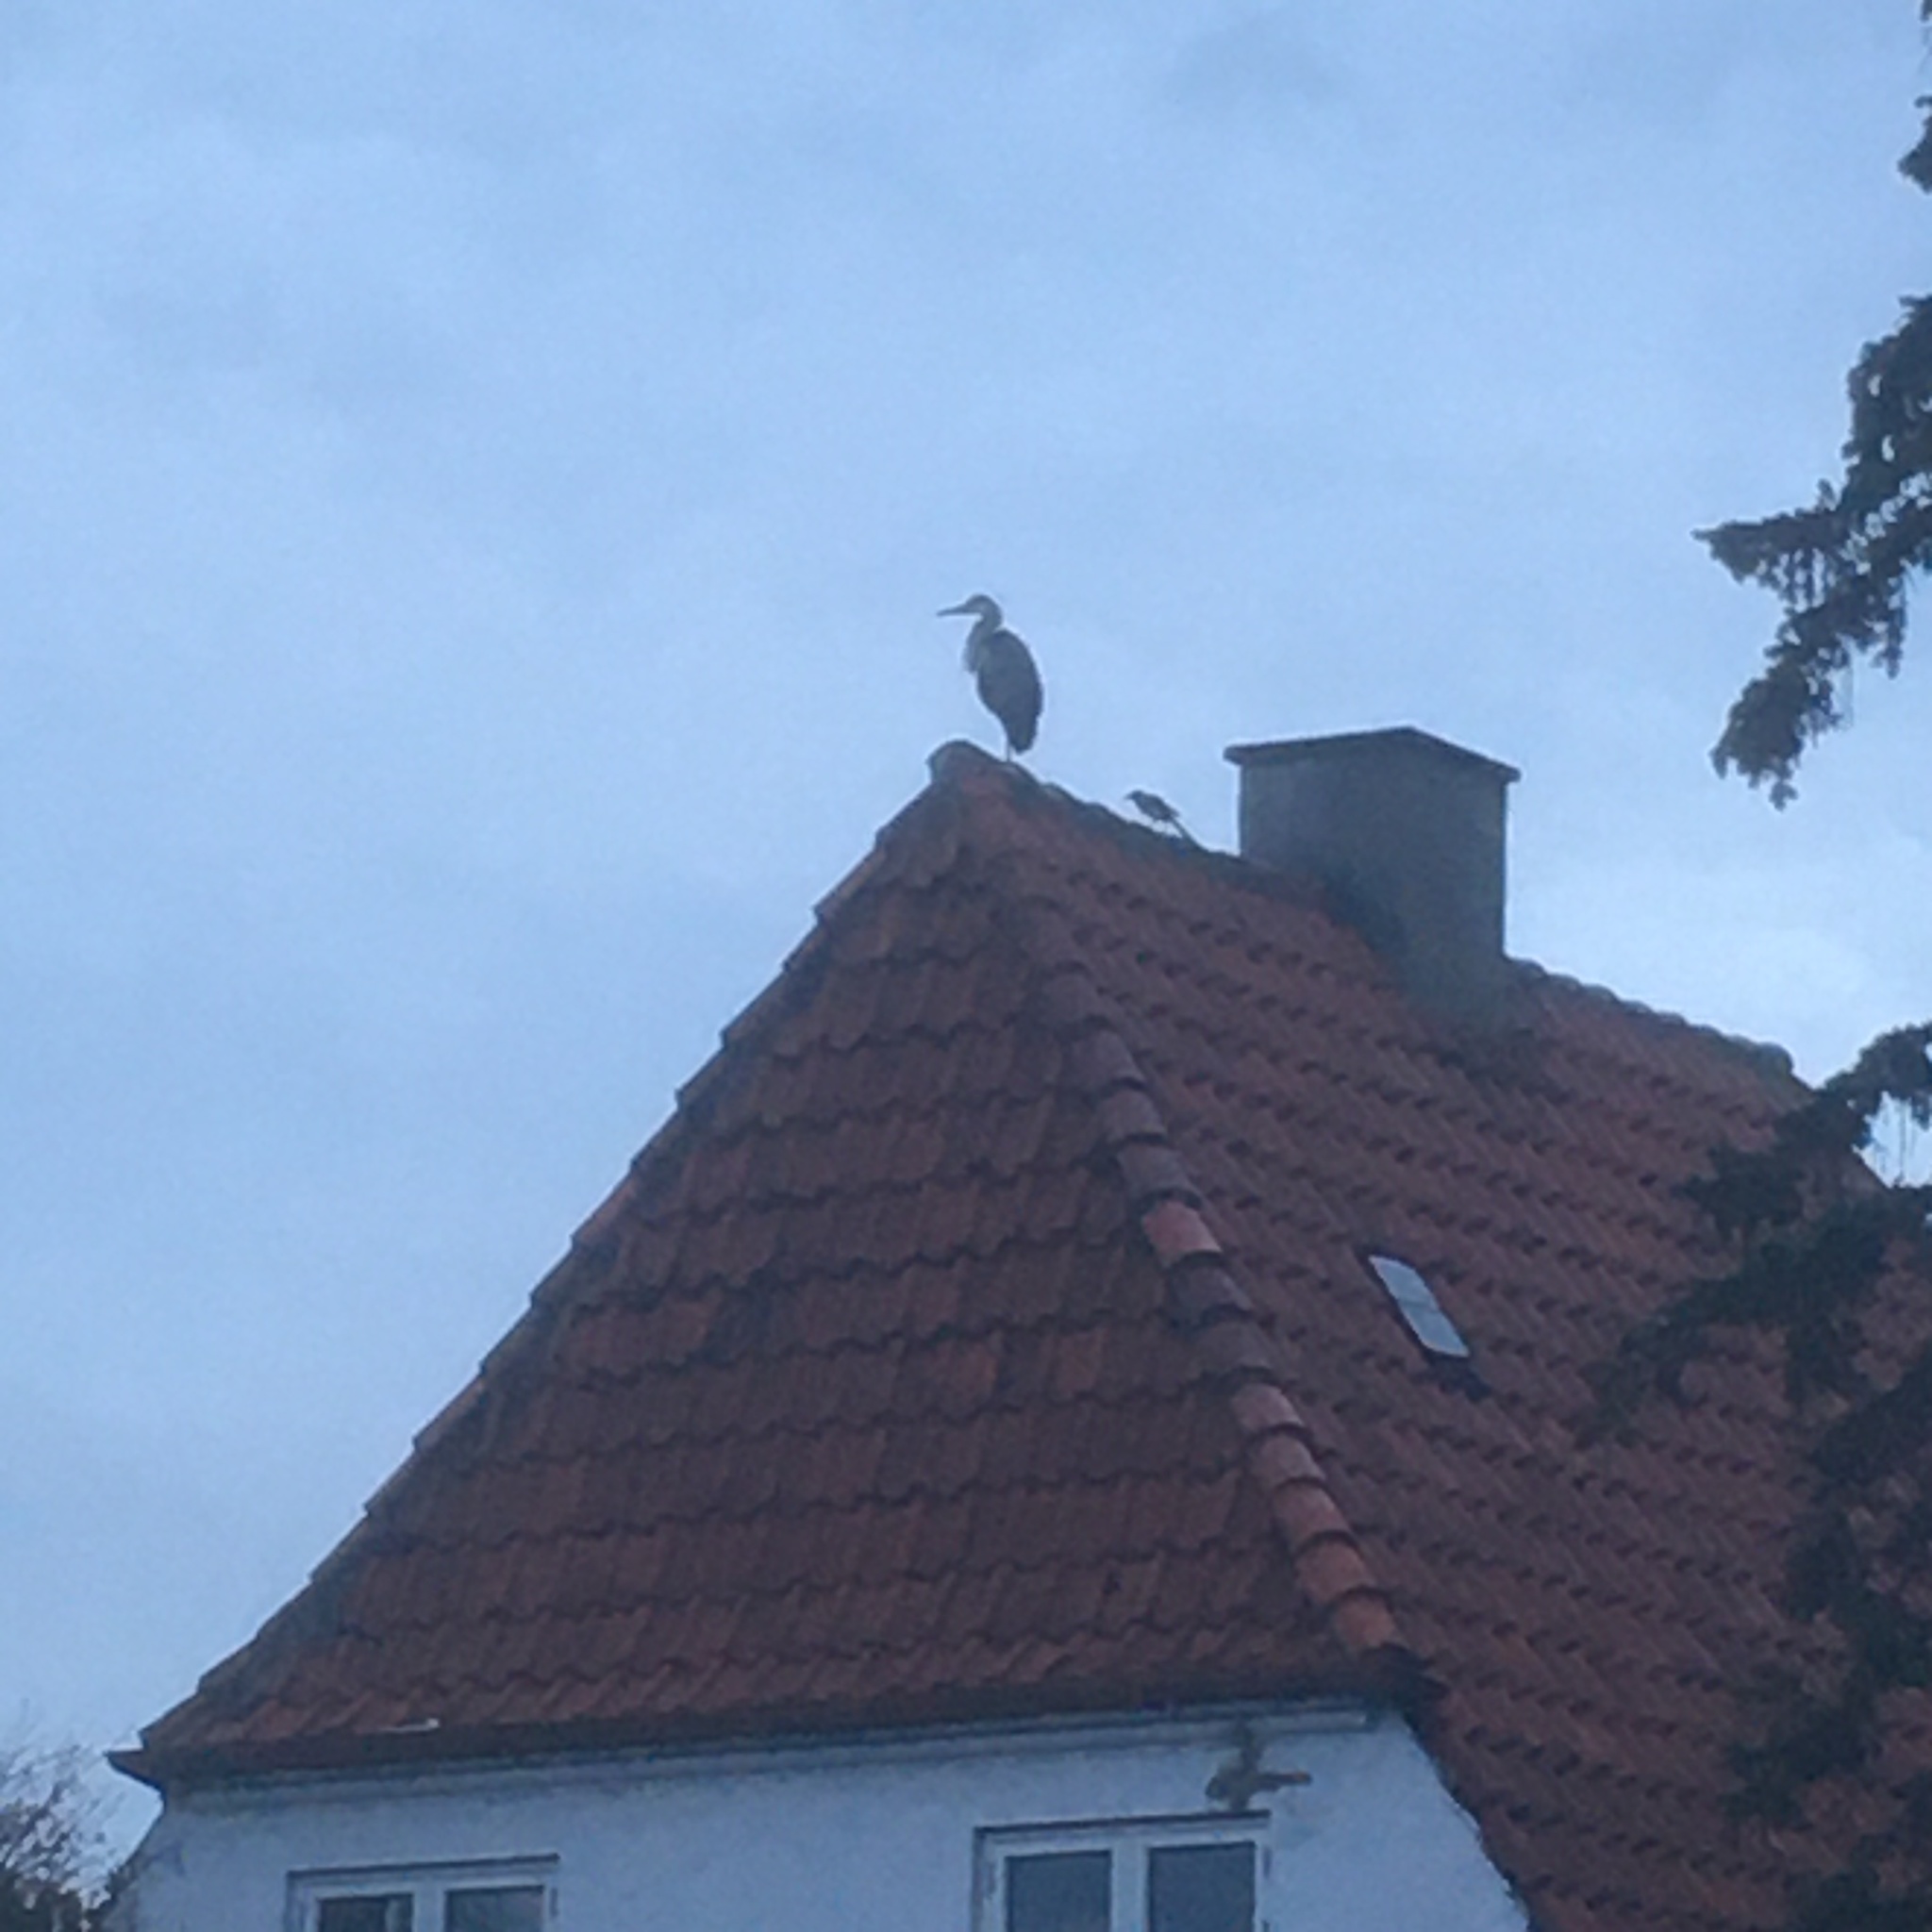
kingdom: Animalia
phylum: Chordata
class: Aves
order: Pelecaniformes
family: Ardeidae
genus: Ardea
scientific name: Ardea cinerea
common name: Grey heron
